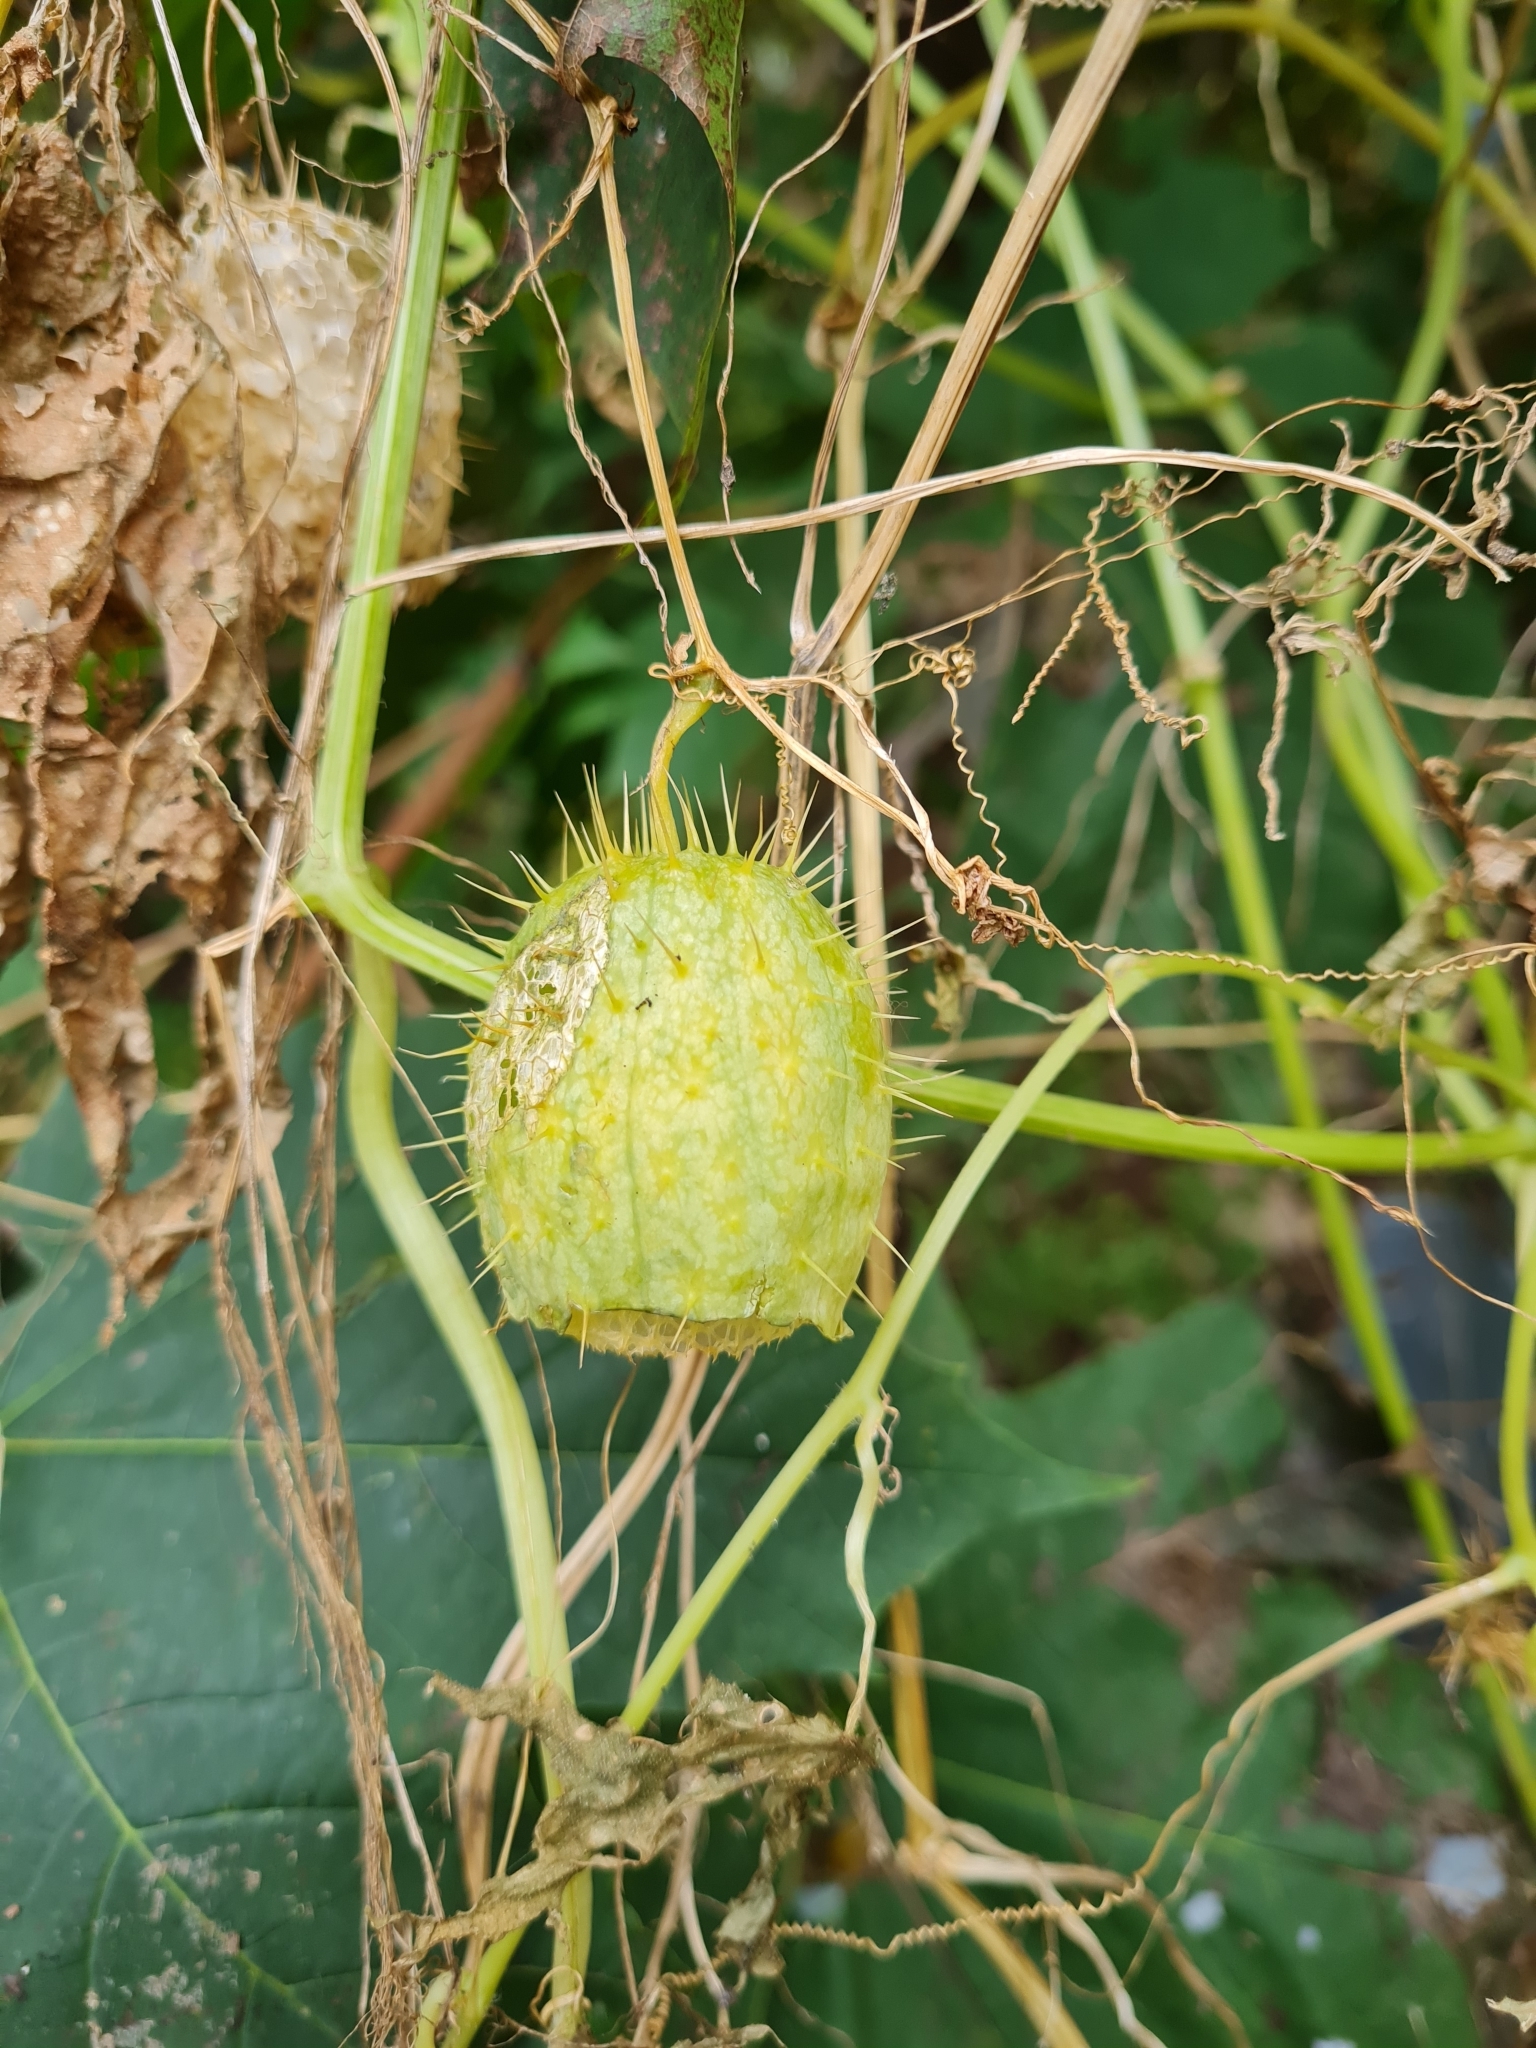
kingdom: Plantae
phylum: Tracheophyta
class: Magnoliopsida
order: Cucurbitales
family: Cucurbitaceae
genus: Echinocystis
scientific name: Echinocystis lobata
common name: Wild cucumber
